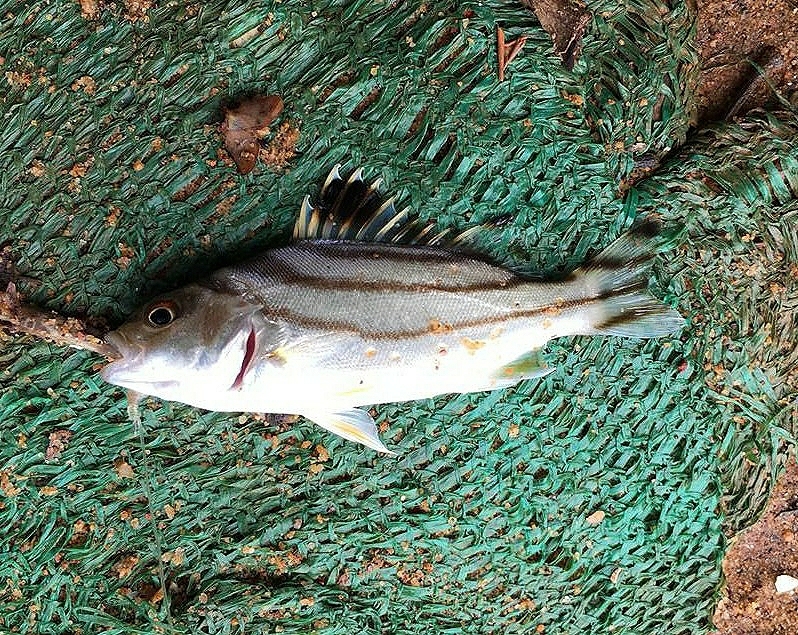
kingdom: Animalia
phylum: Chordata
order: Perciformes
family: Terapontidae
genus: Terapon
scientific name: Terapon jarbua
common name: Jarbua terapon
